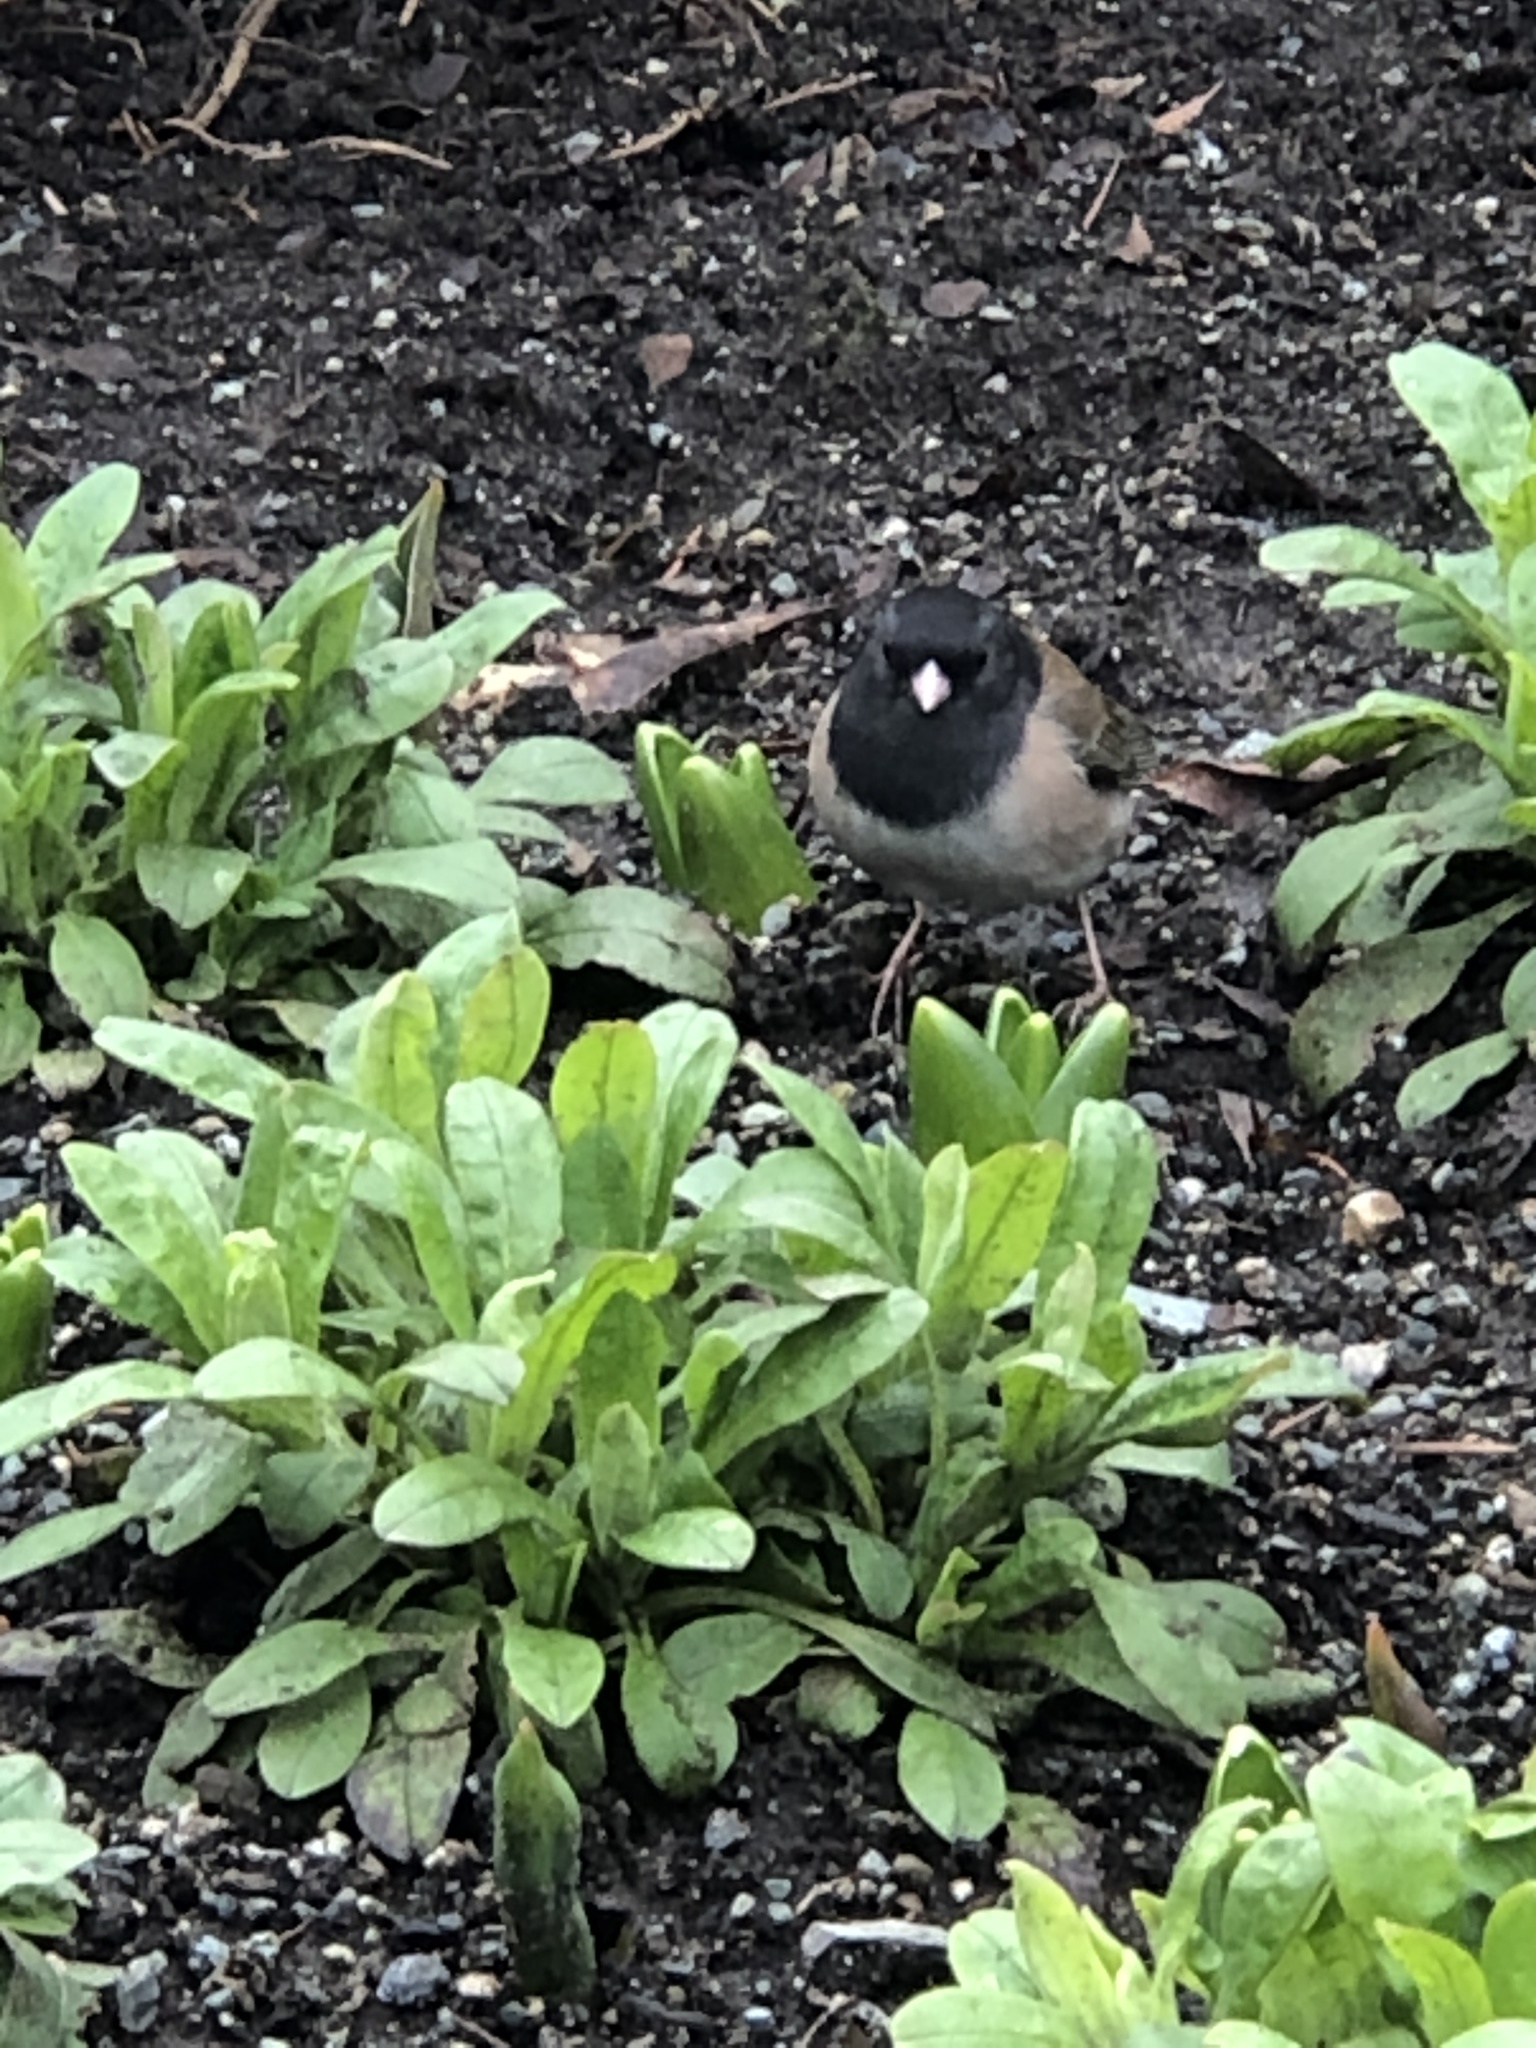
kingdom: Animalia
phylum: Chordata
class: Aves
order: Passeriformes
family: Passerellidae
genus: Junco
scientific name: Junco hyemalis
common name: Dark-eyed junco
